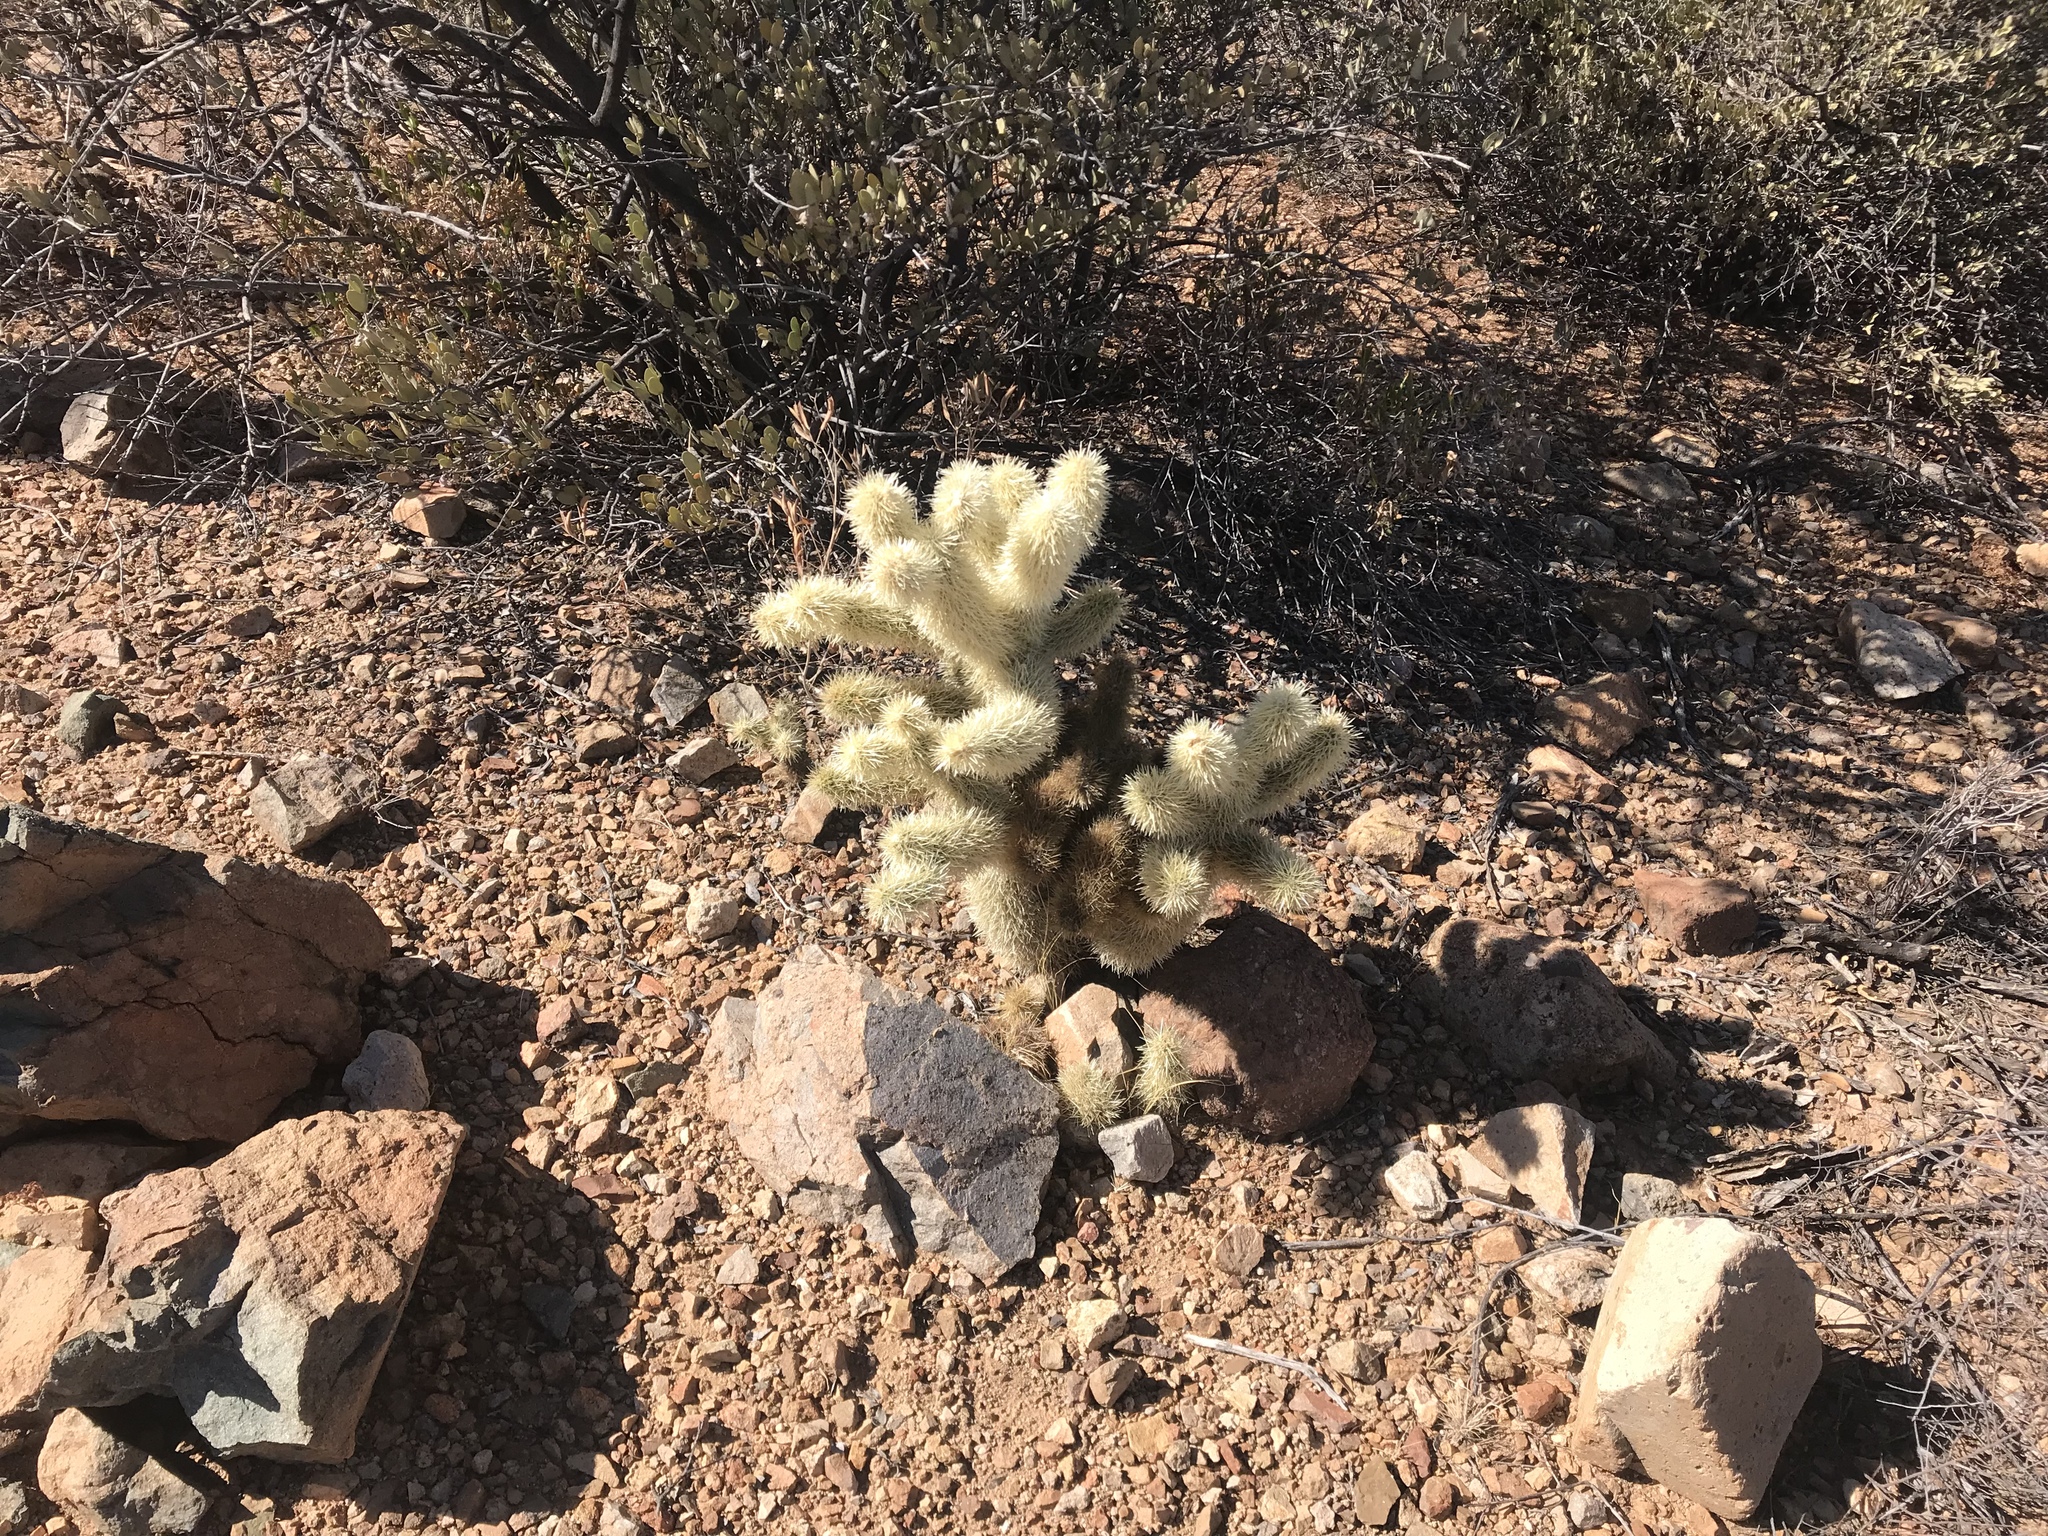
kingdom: Plantae
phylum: Tracheophyta
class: Magnoliopsida
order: Caryophyllales
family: Cactaceae
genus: Cylindropuntia
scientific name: Cylindropuntia fosbergii
